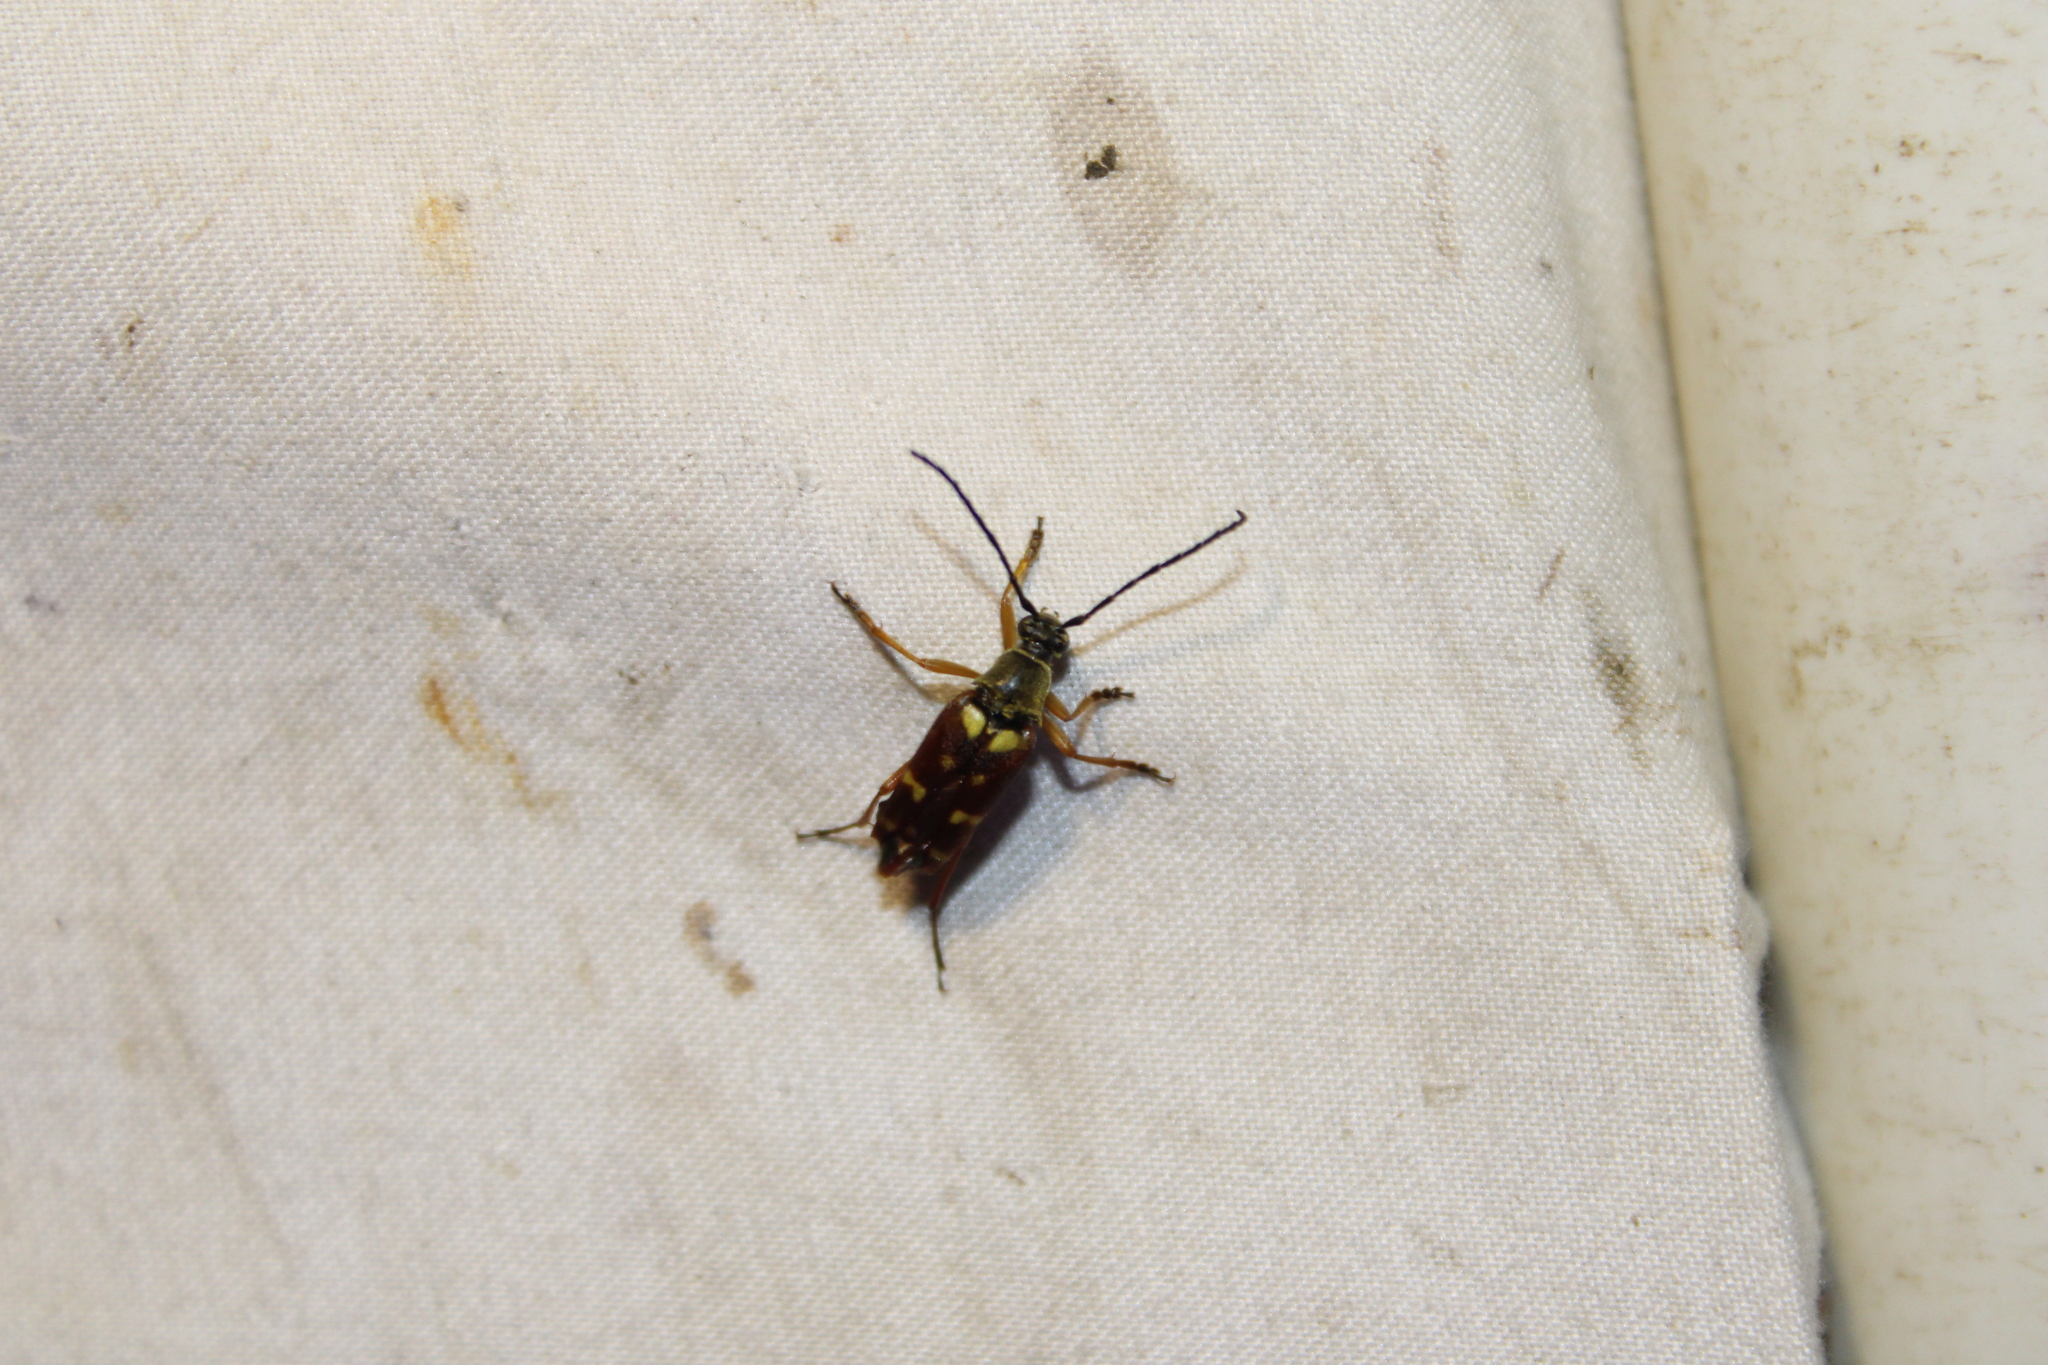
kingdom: Animalia
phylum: Arthropoda
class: Insecta
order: Coleoptera
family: Cerambycidae
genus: Typocerus
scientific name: Typocerus velutinus
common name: Banded longhorn beetle
